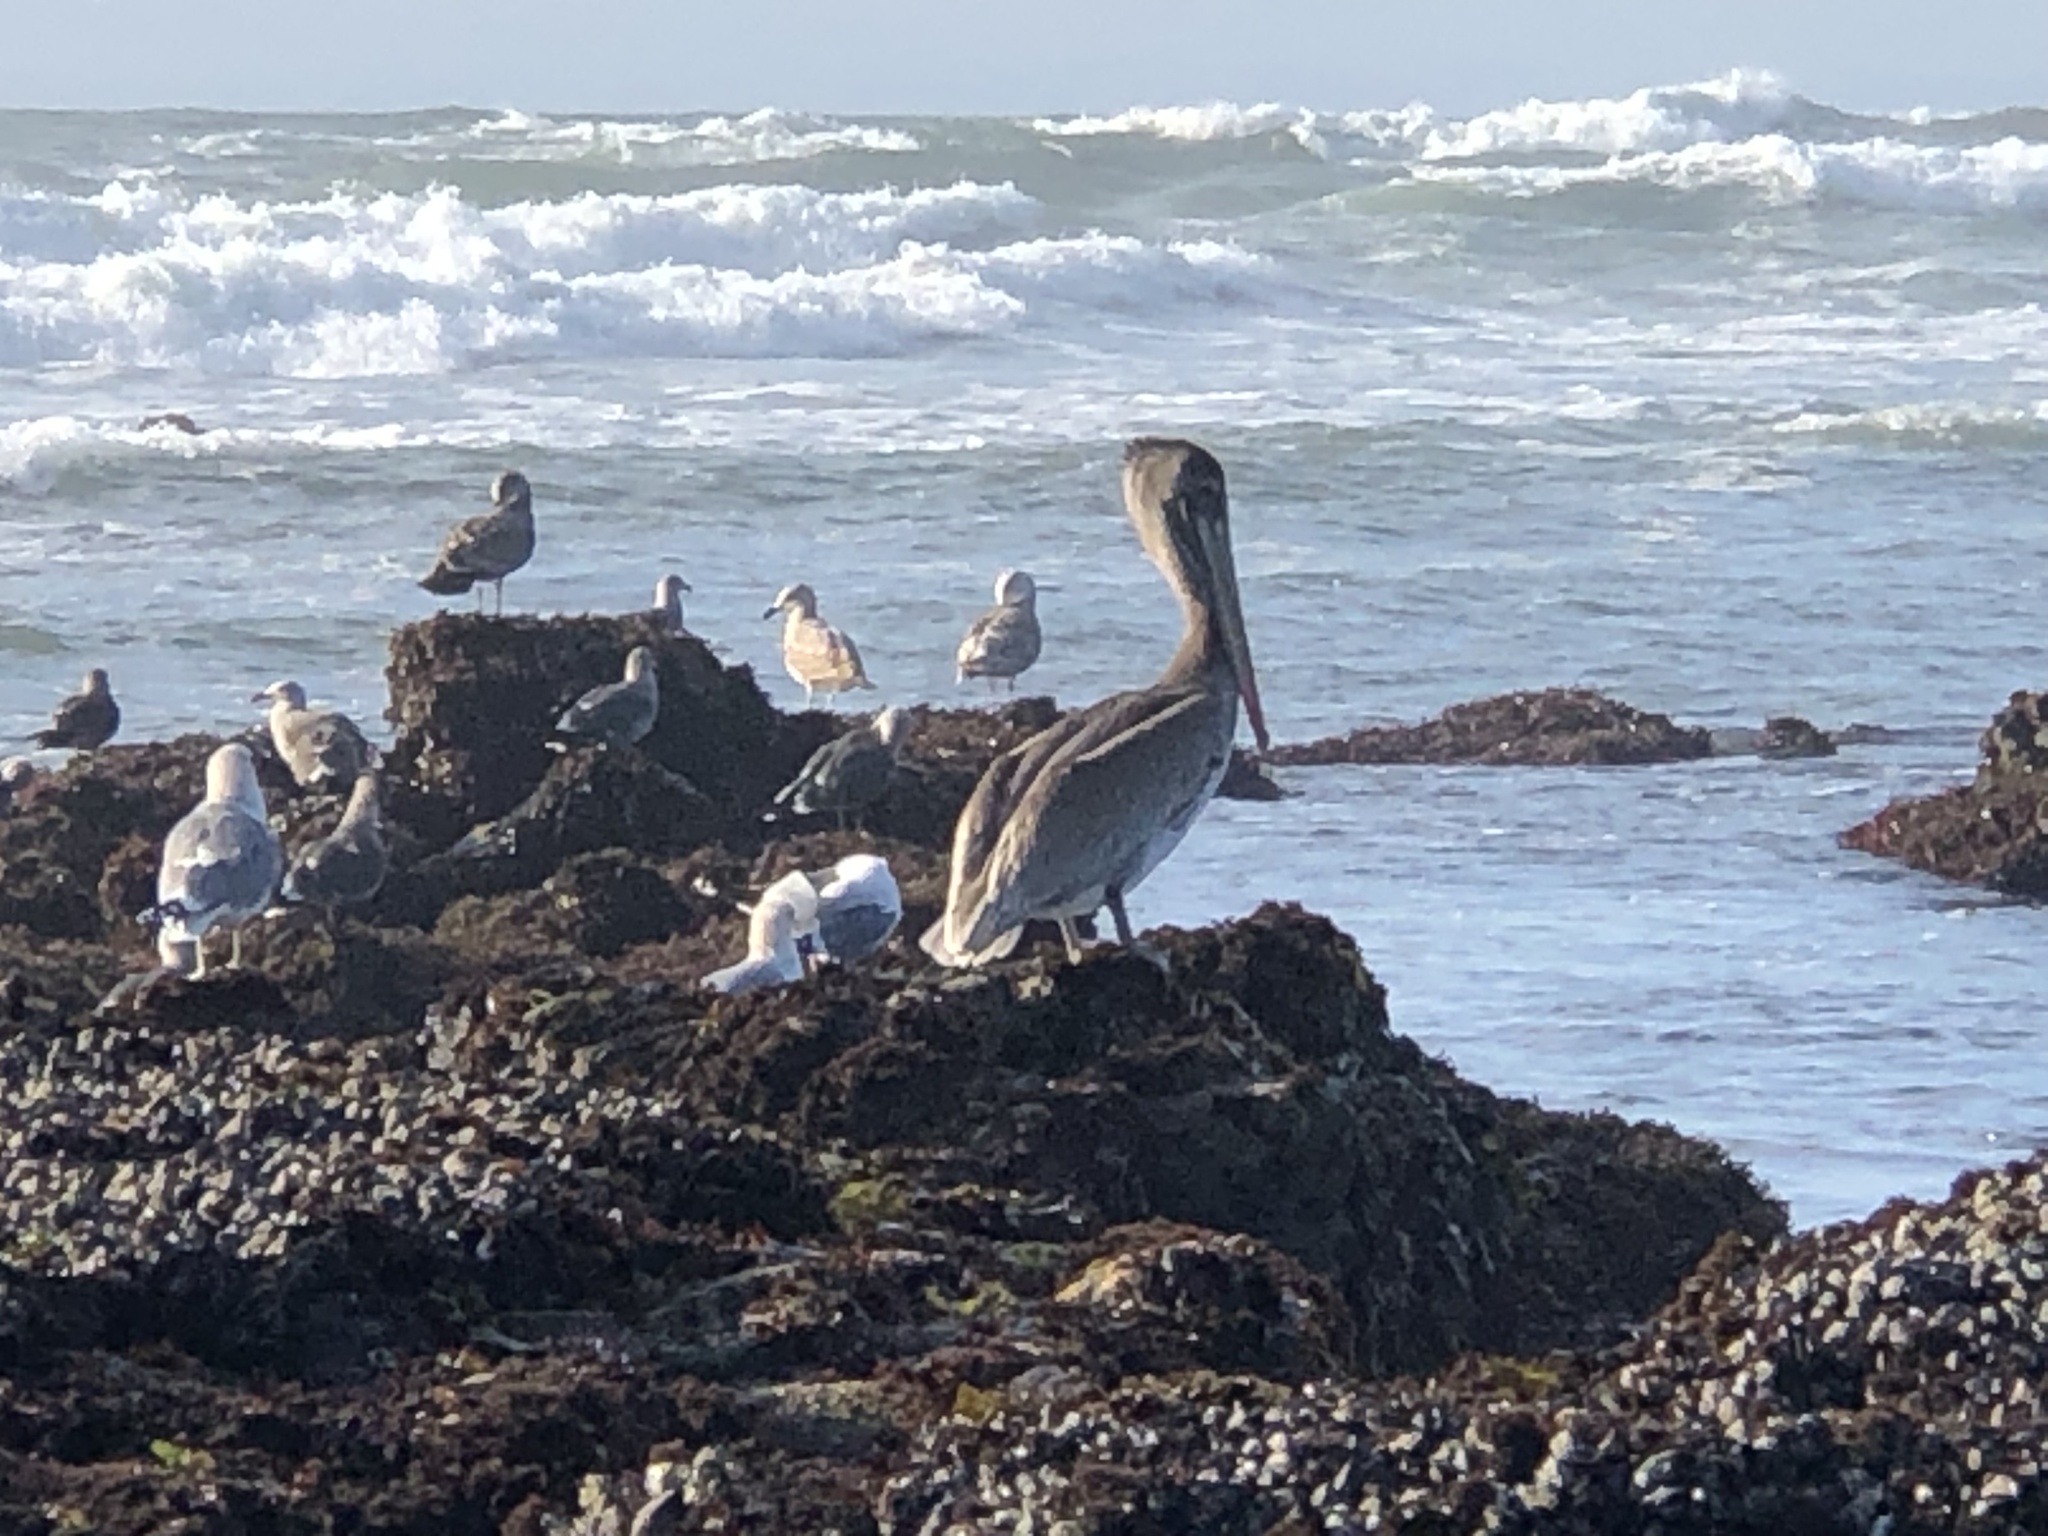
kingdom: Animalia
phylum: Chordata
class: Aves
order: Pelecaniformes
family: Pelecanidae
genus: Pelecanus
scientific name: Pelecanus occidentalis
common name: Brown pelican
